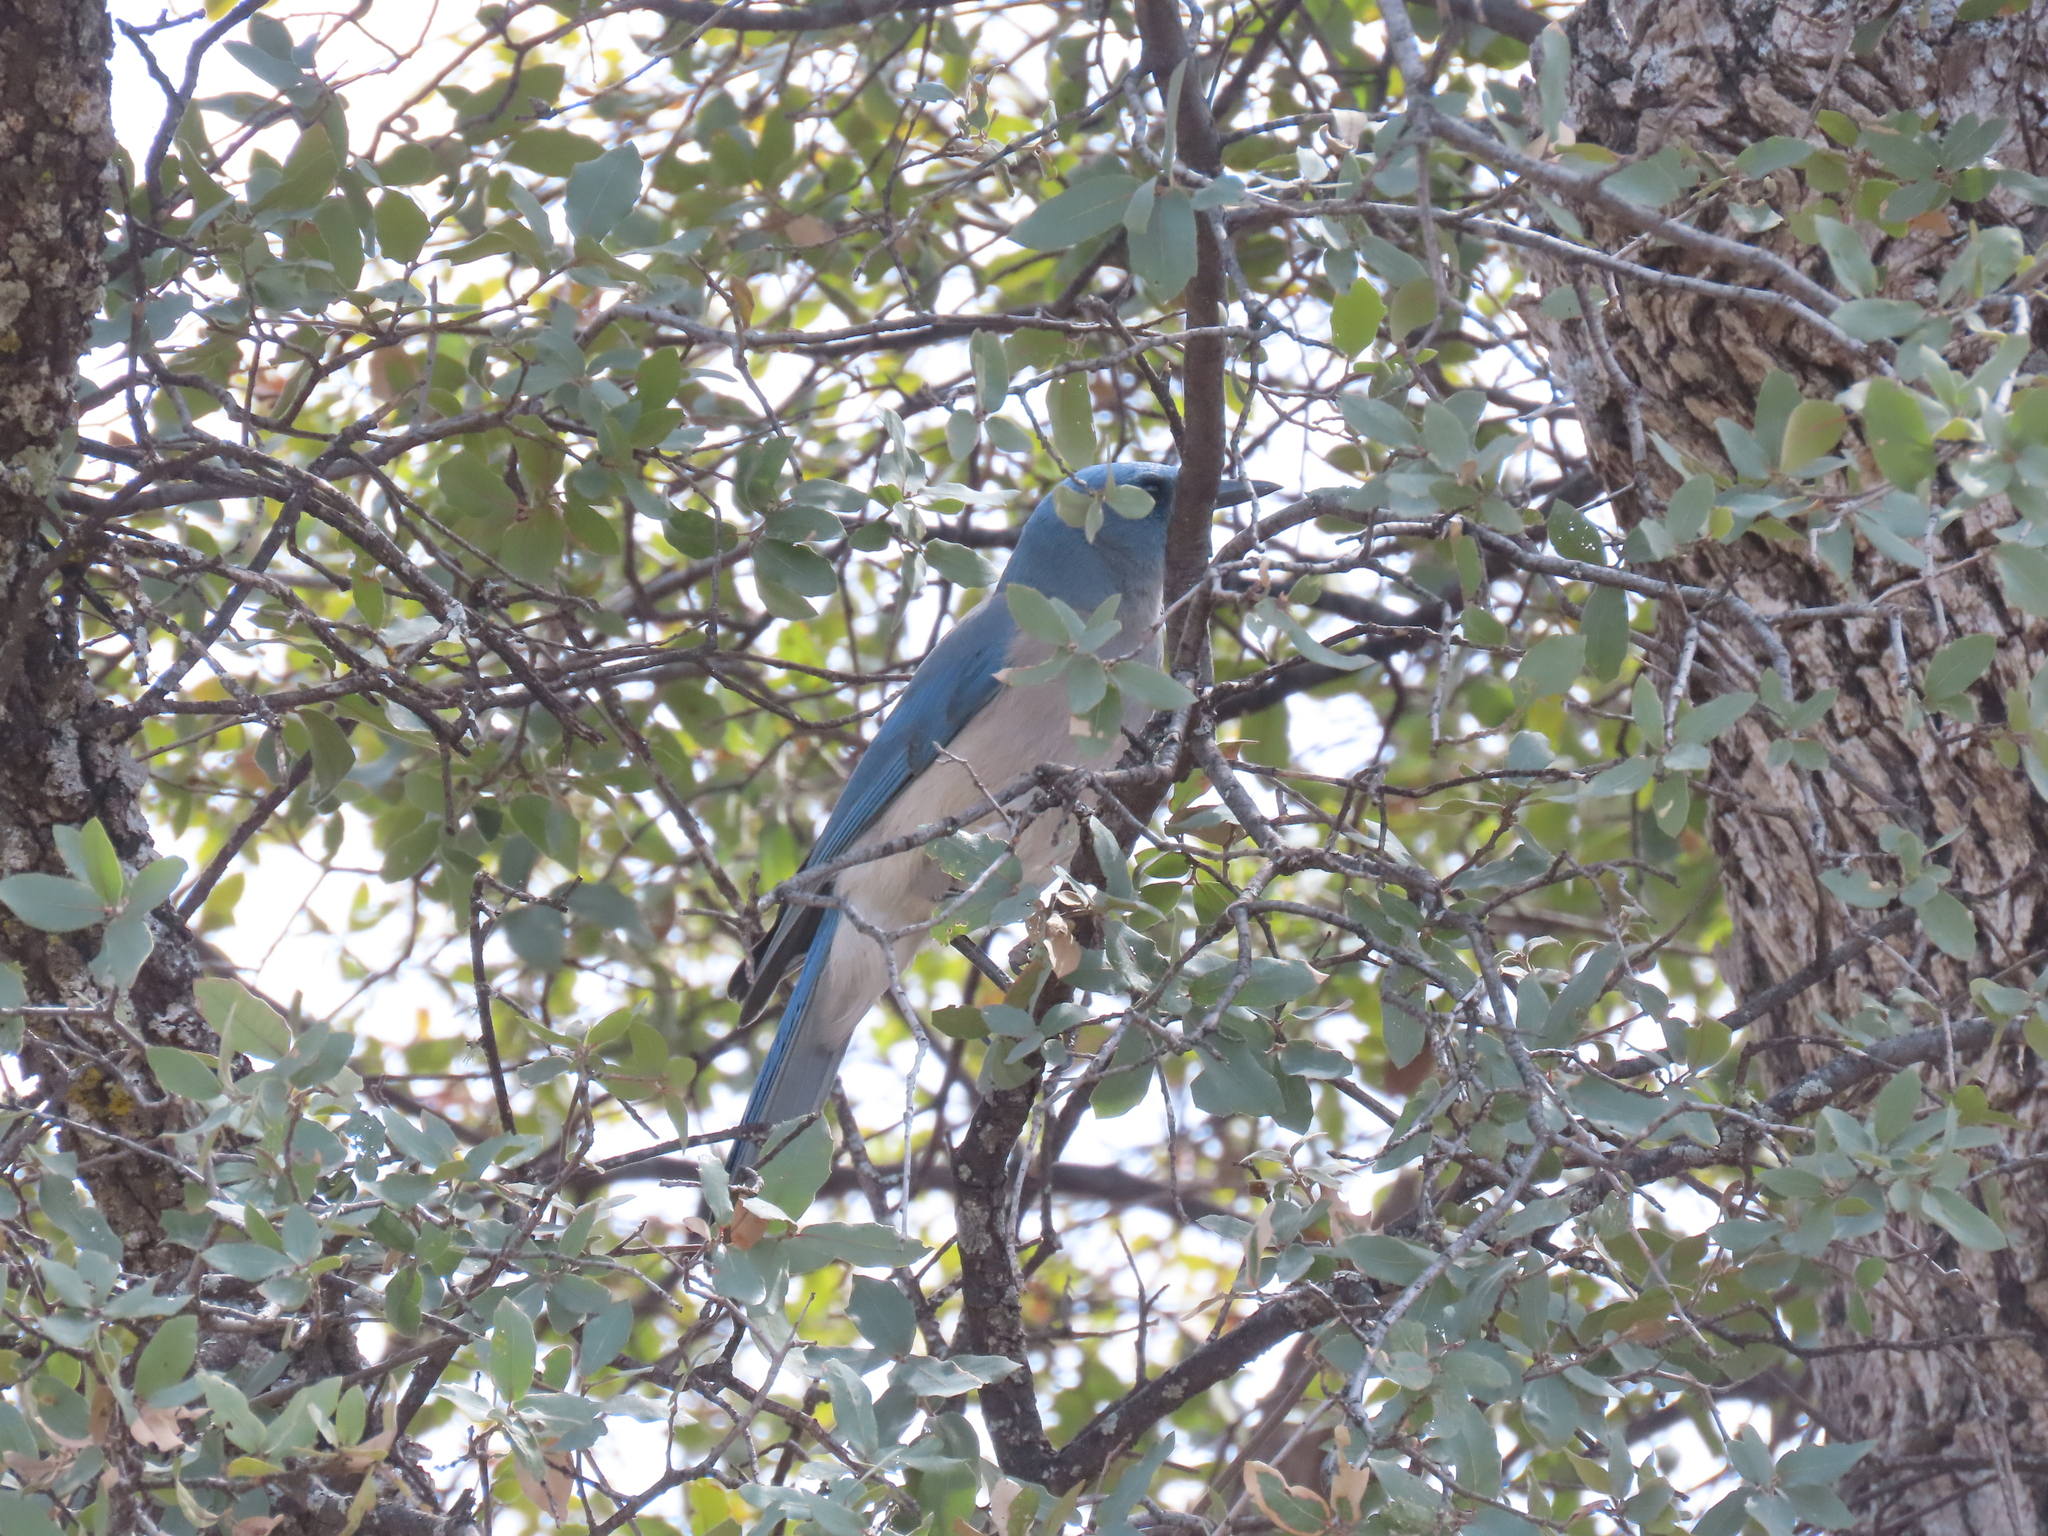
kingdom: Animalia
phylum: Chordata
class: Aves
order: Passeriformes
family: Corvidae
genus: Aphelocoma
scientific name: Aphelocoma wollweberi
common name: Mexican jay
